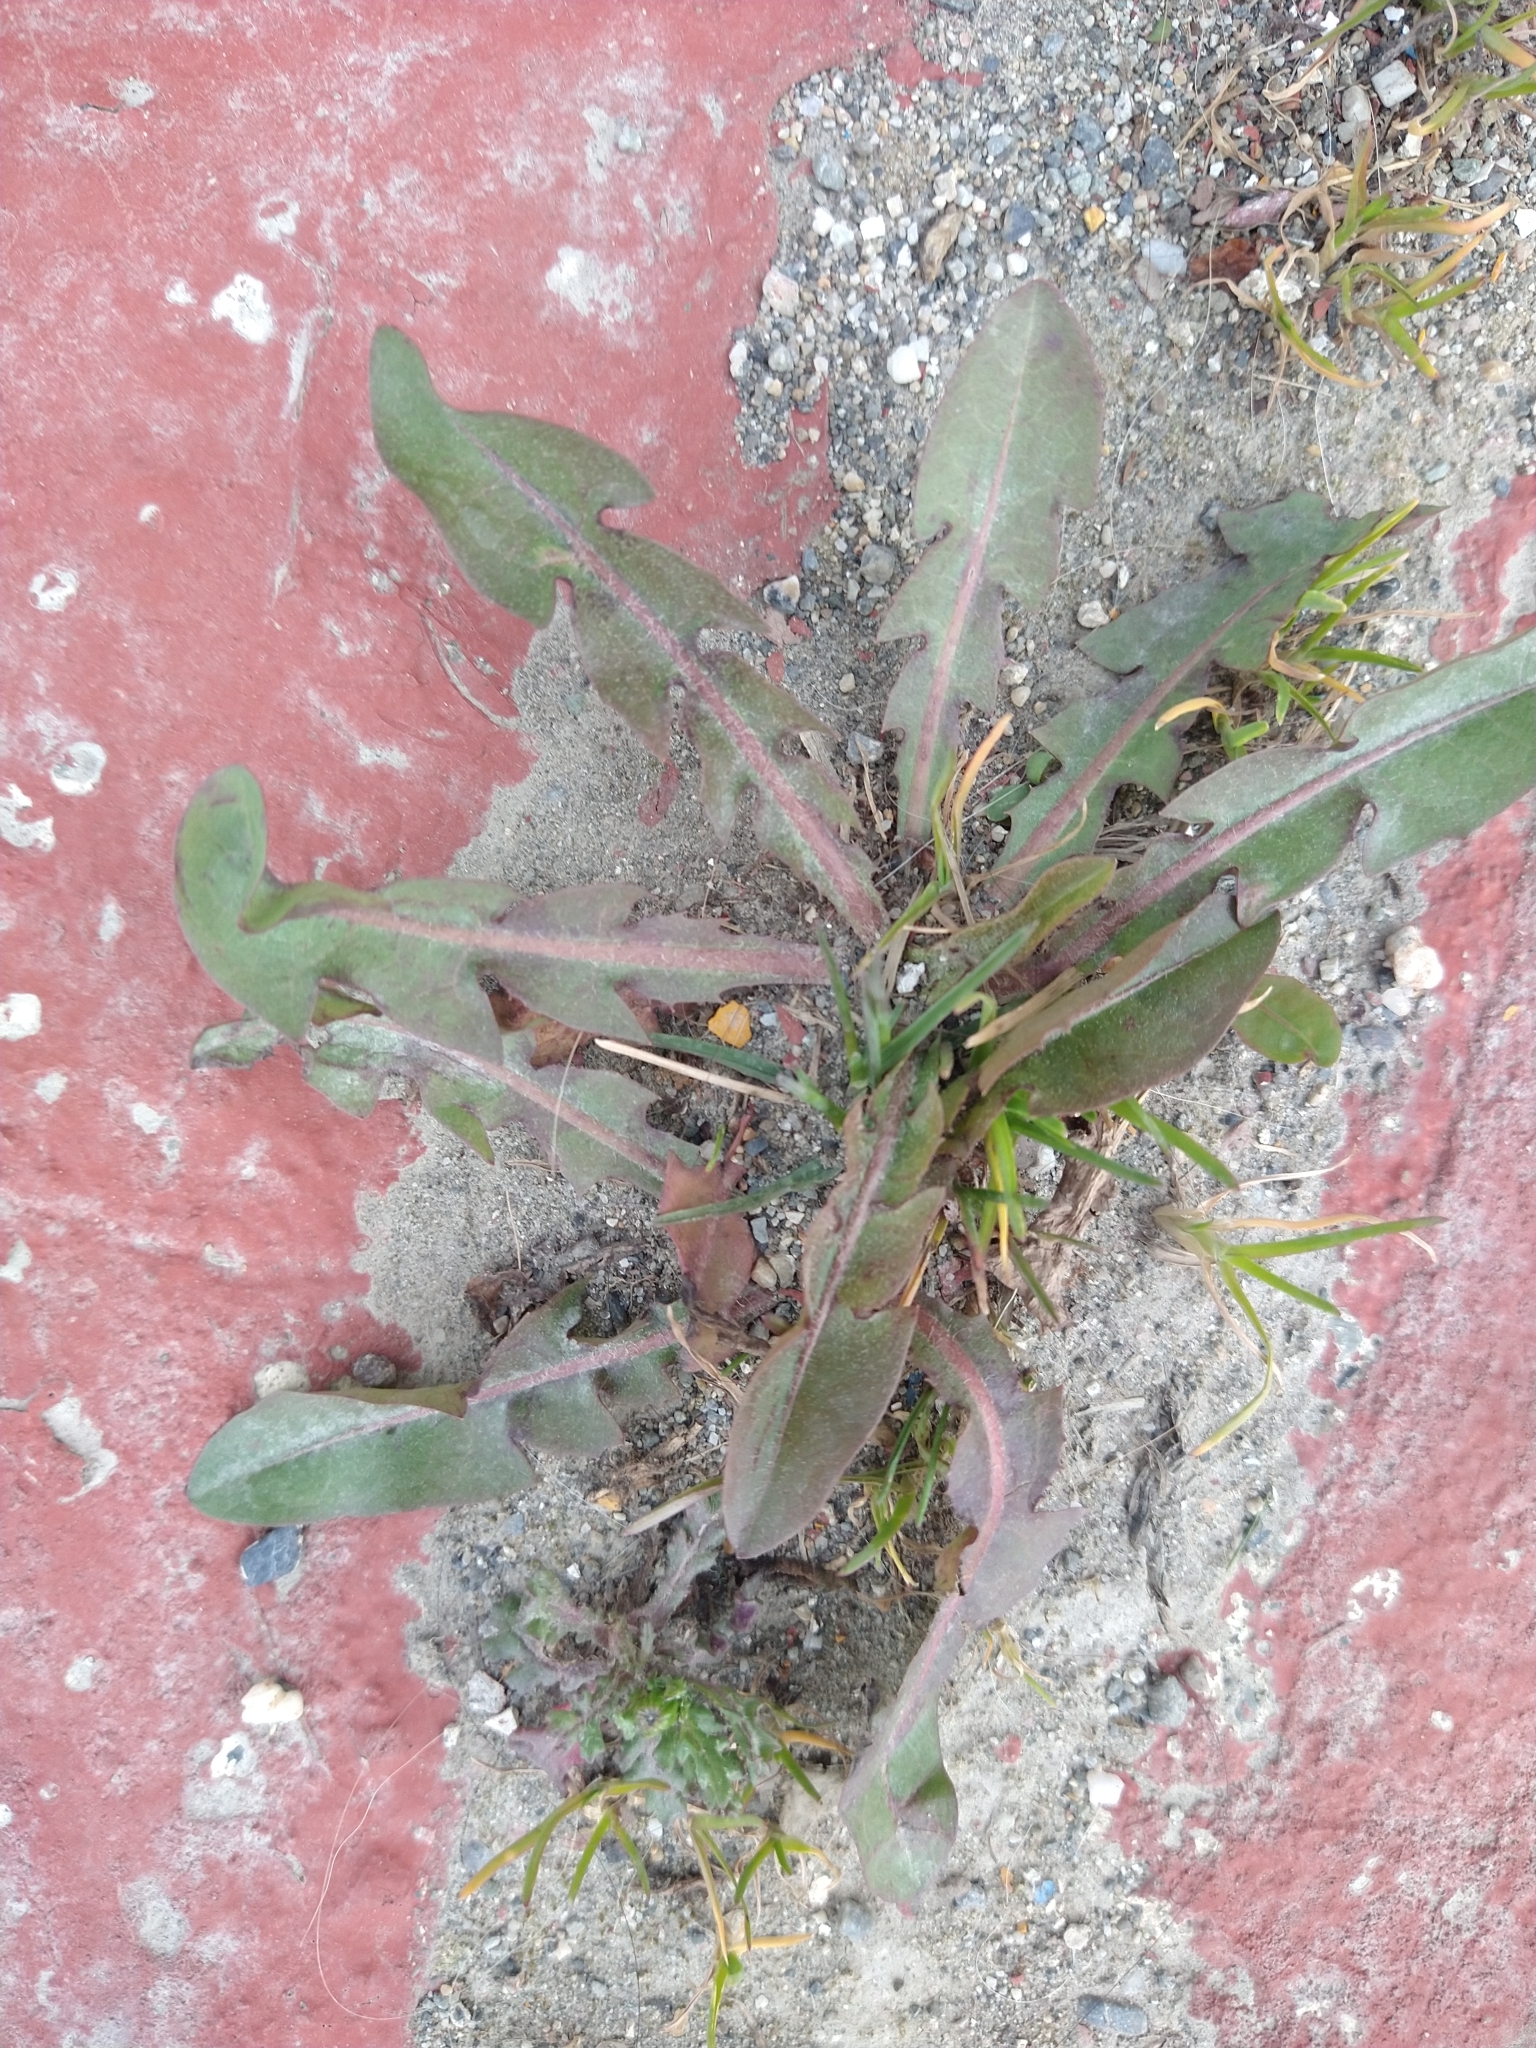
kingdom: Plantae
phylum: Tracheophyta
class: Magnoliopsida
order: Asterales
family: Asteraceae
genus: Taraxacum
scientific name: Taraxacum officinale
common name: Common dandelion
